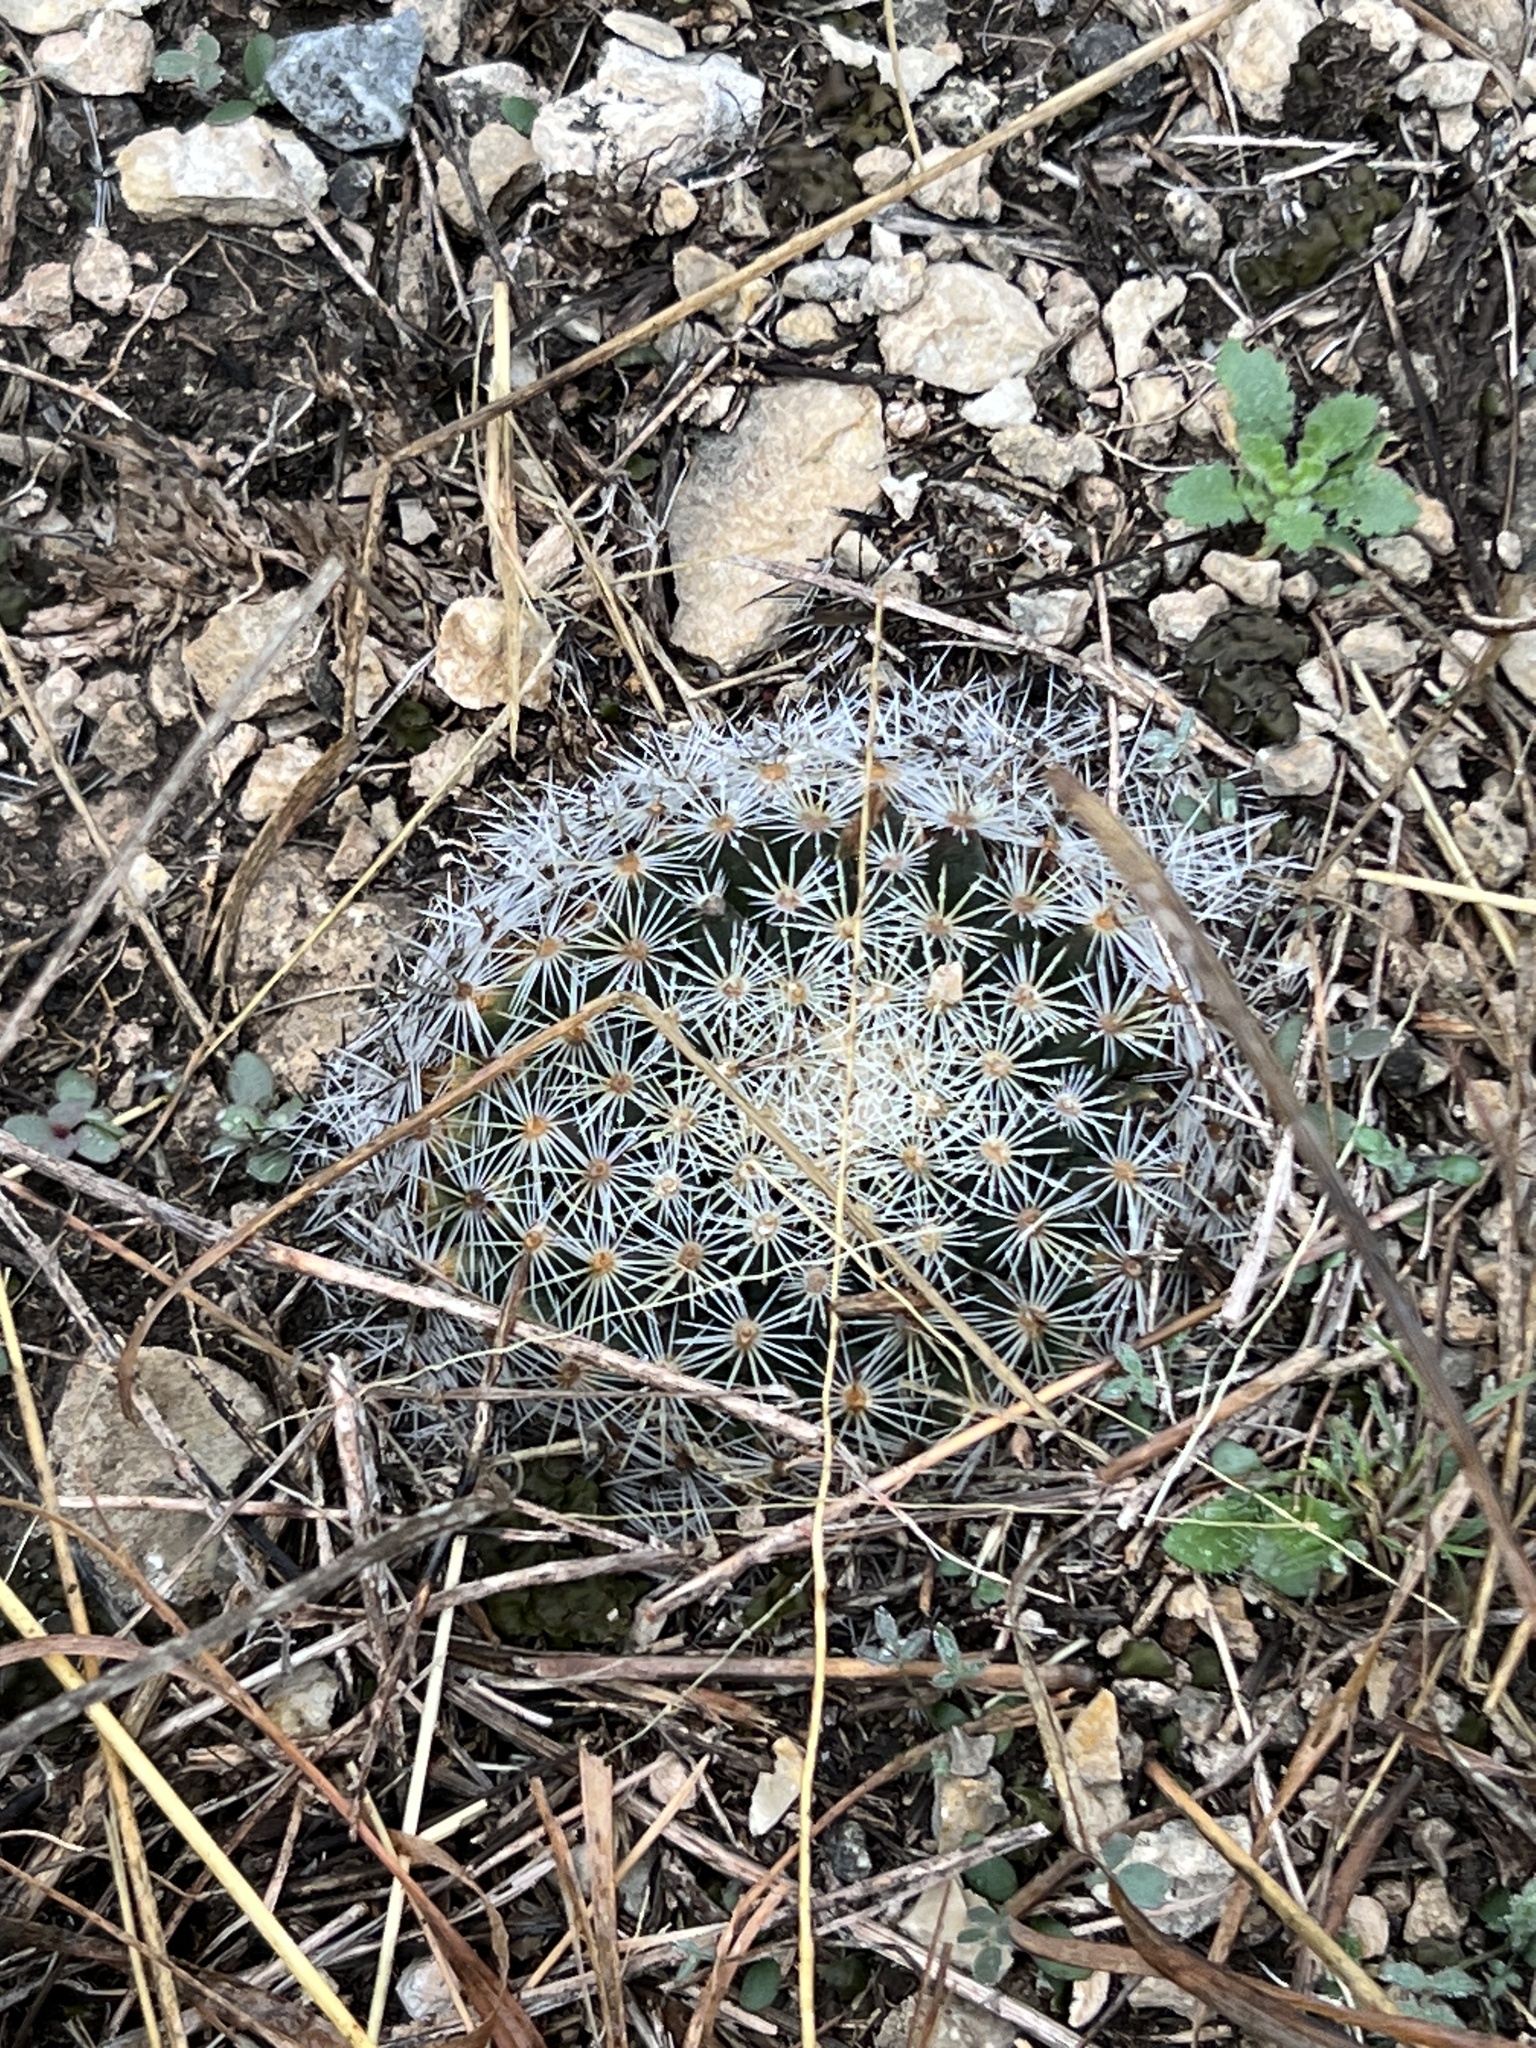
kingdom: Plantae
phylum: Tracheophyta
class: Magnoliopsida
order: Caryophyllales
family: Cactaceae
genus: Mammillaria
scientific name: Mammillaria heyderi
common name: Little nipple cactus
